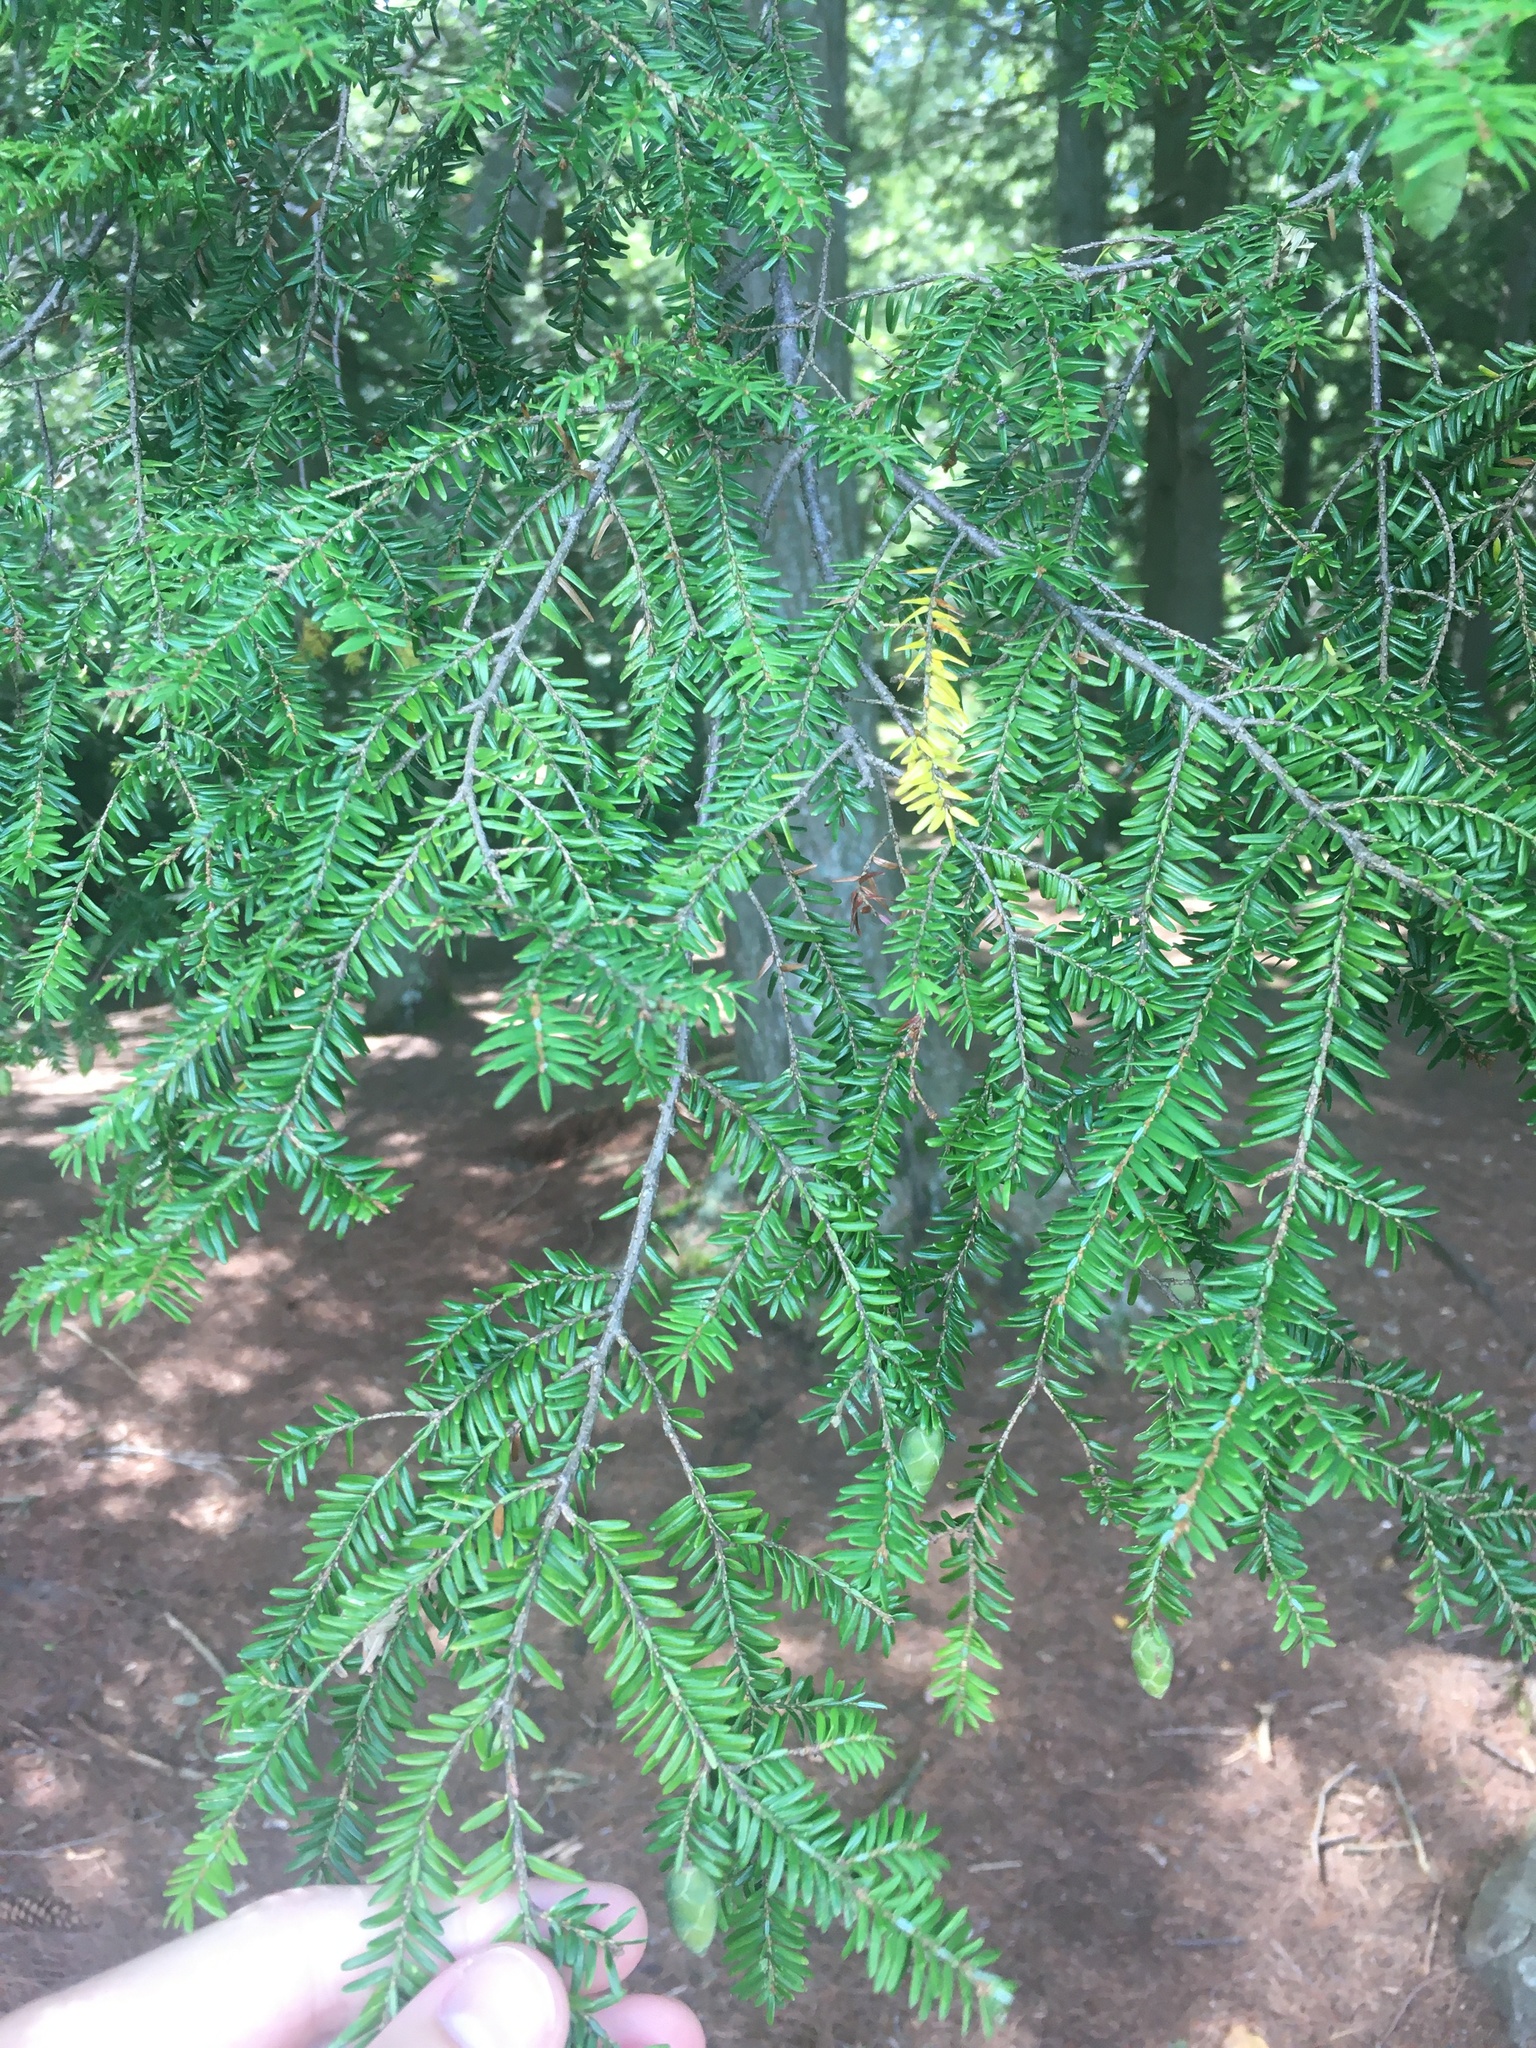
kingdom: Plantae
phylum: Tracheophyta
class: Pinopsida
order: Pinales
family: Pinaceae
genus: Tsuga
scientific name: Tsuga canadensis
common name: Eastern hemlock
